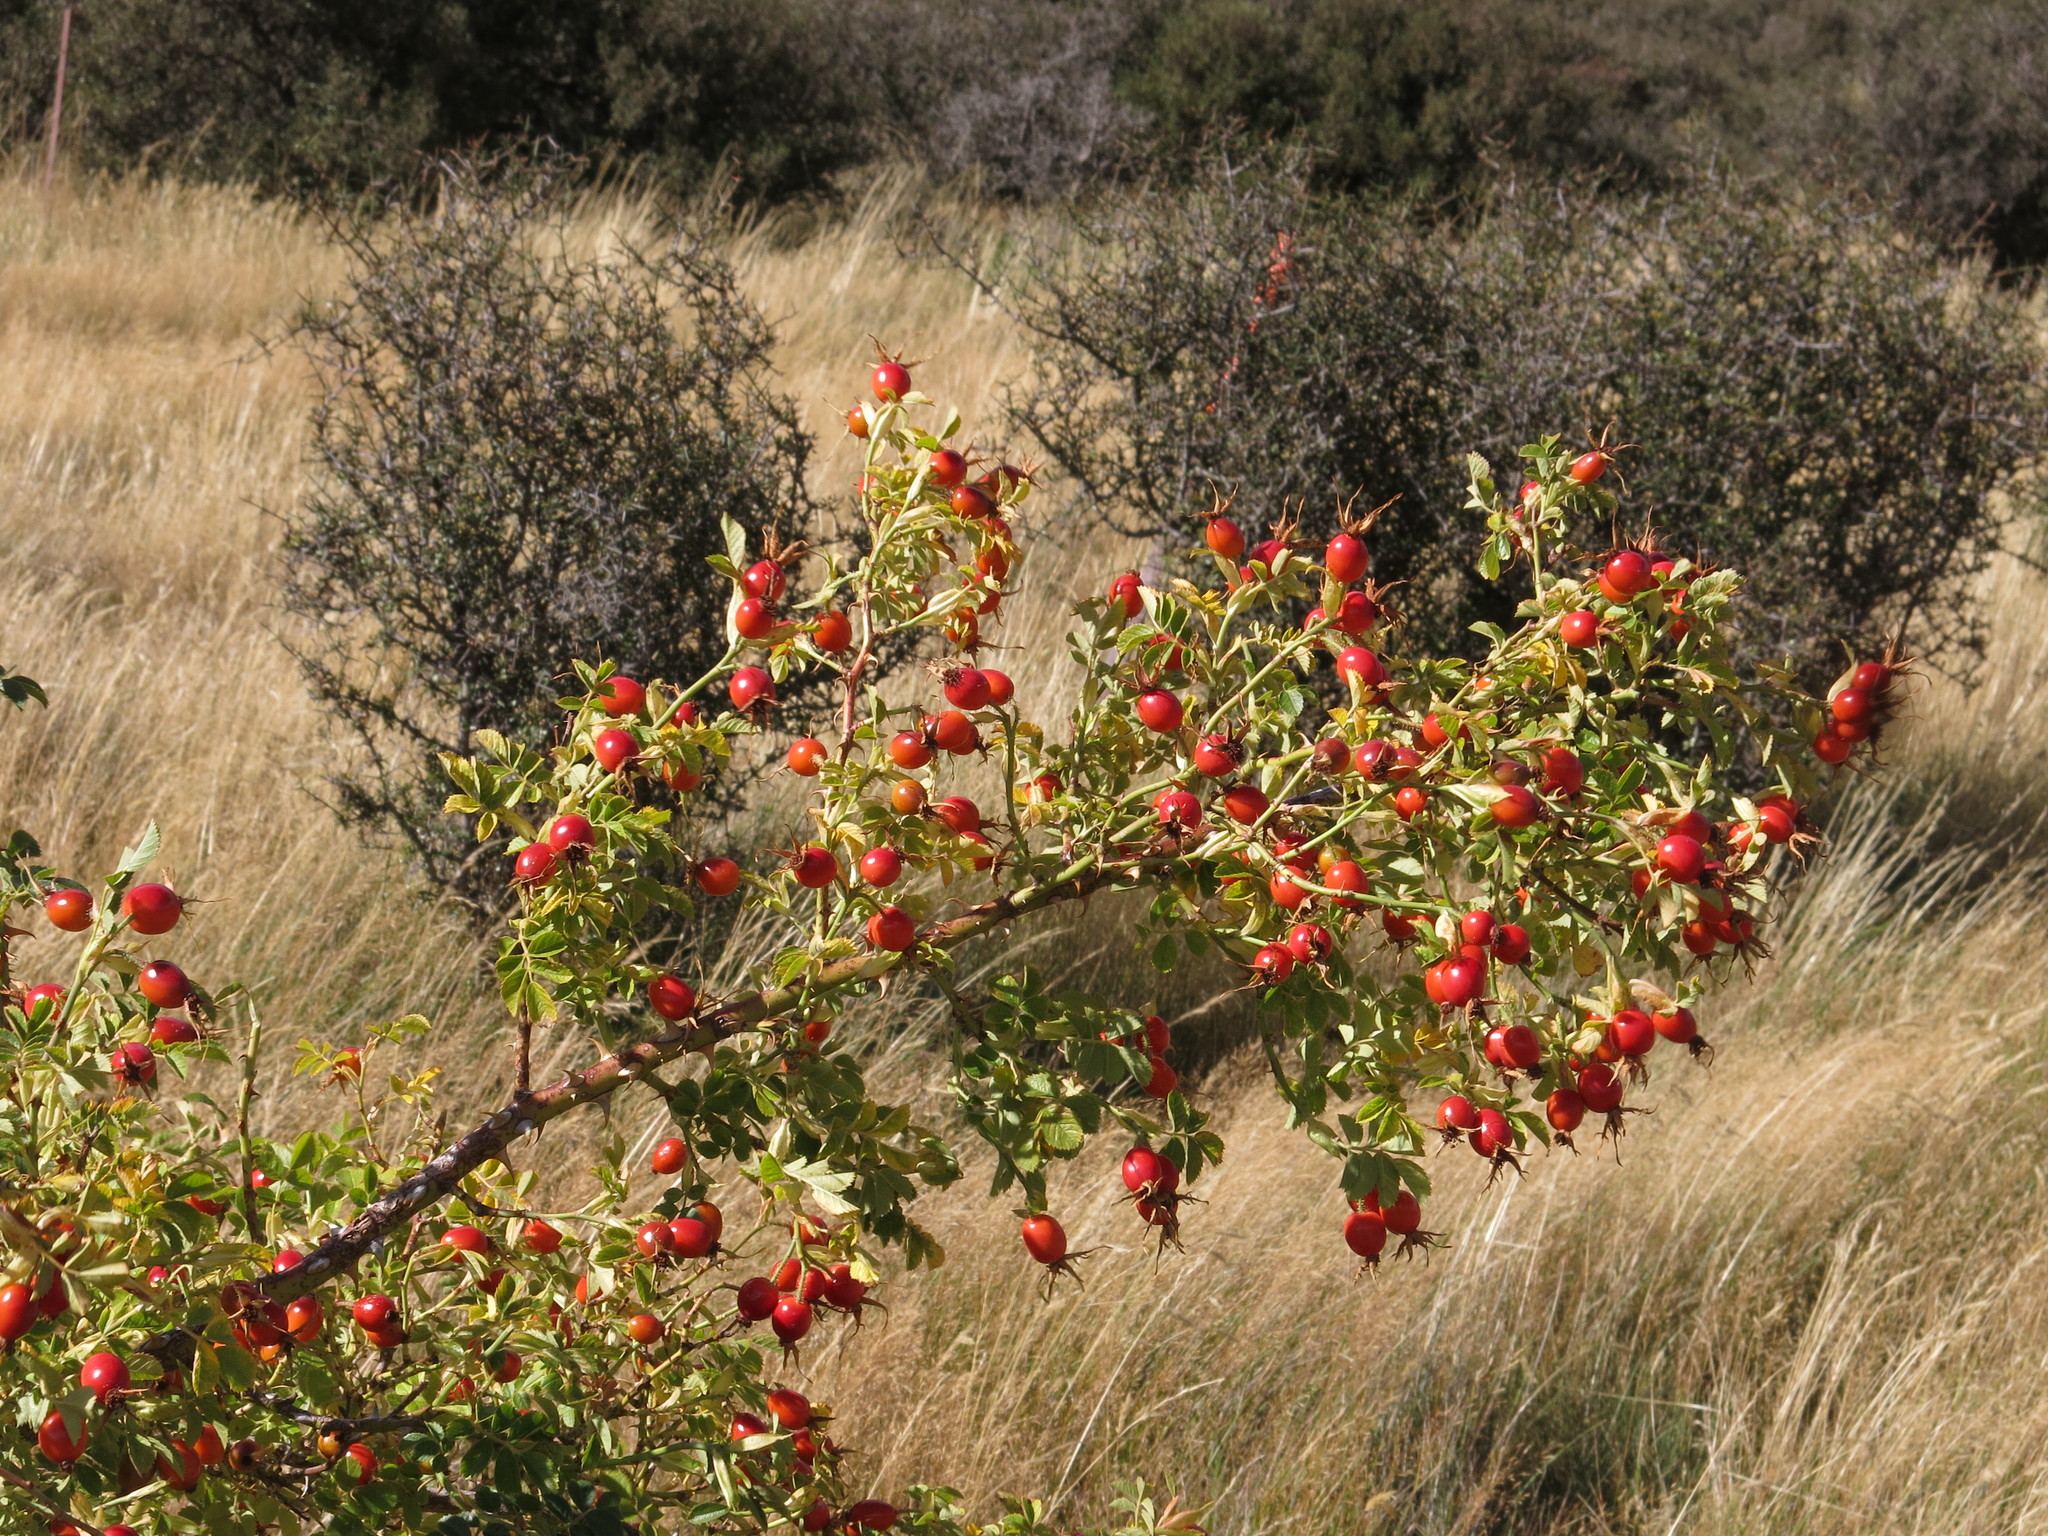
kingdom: Plantae
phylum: Tracheophyta
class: Magnoliopsida
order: Rosales
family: Rosaceae
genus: Rosa
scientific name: Rosa rubiginosa
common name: Sweet-briar
